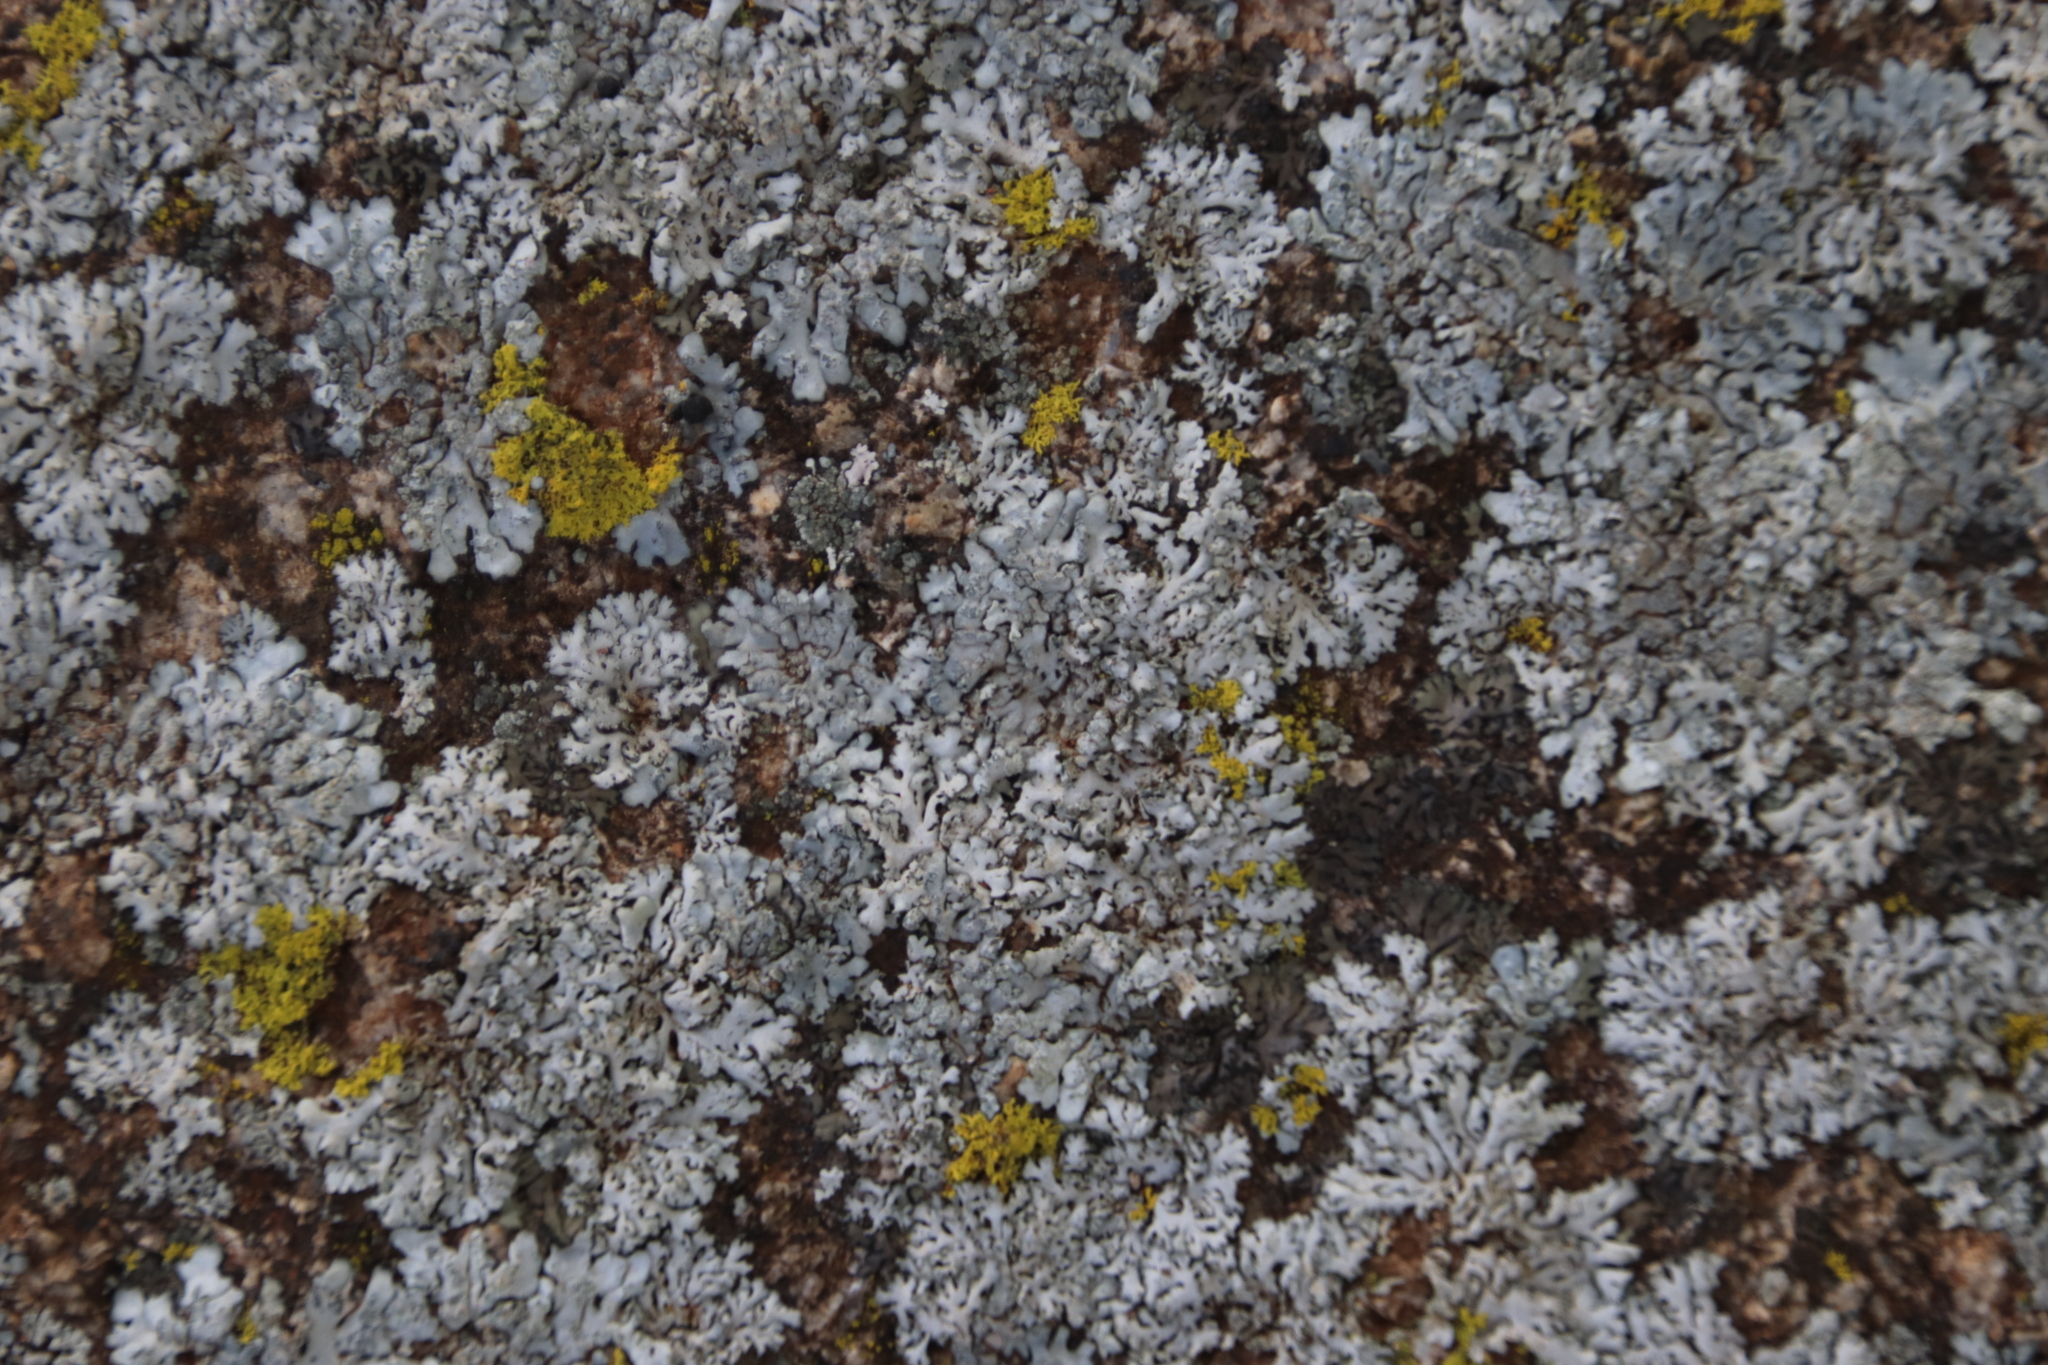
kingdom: Fungi
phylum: Ascomycota
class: Lecanoromycetes
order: Caliciales
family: Physciaceae
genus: Physcia
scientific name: Physcia caesia
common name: Blue-gray rosette lichen
